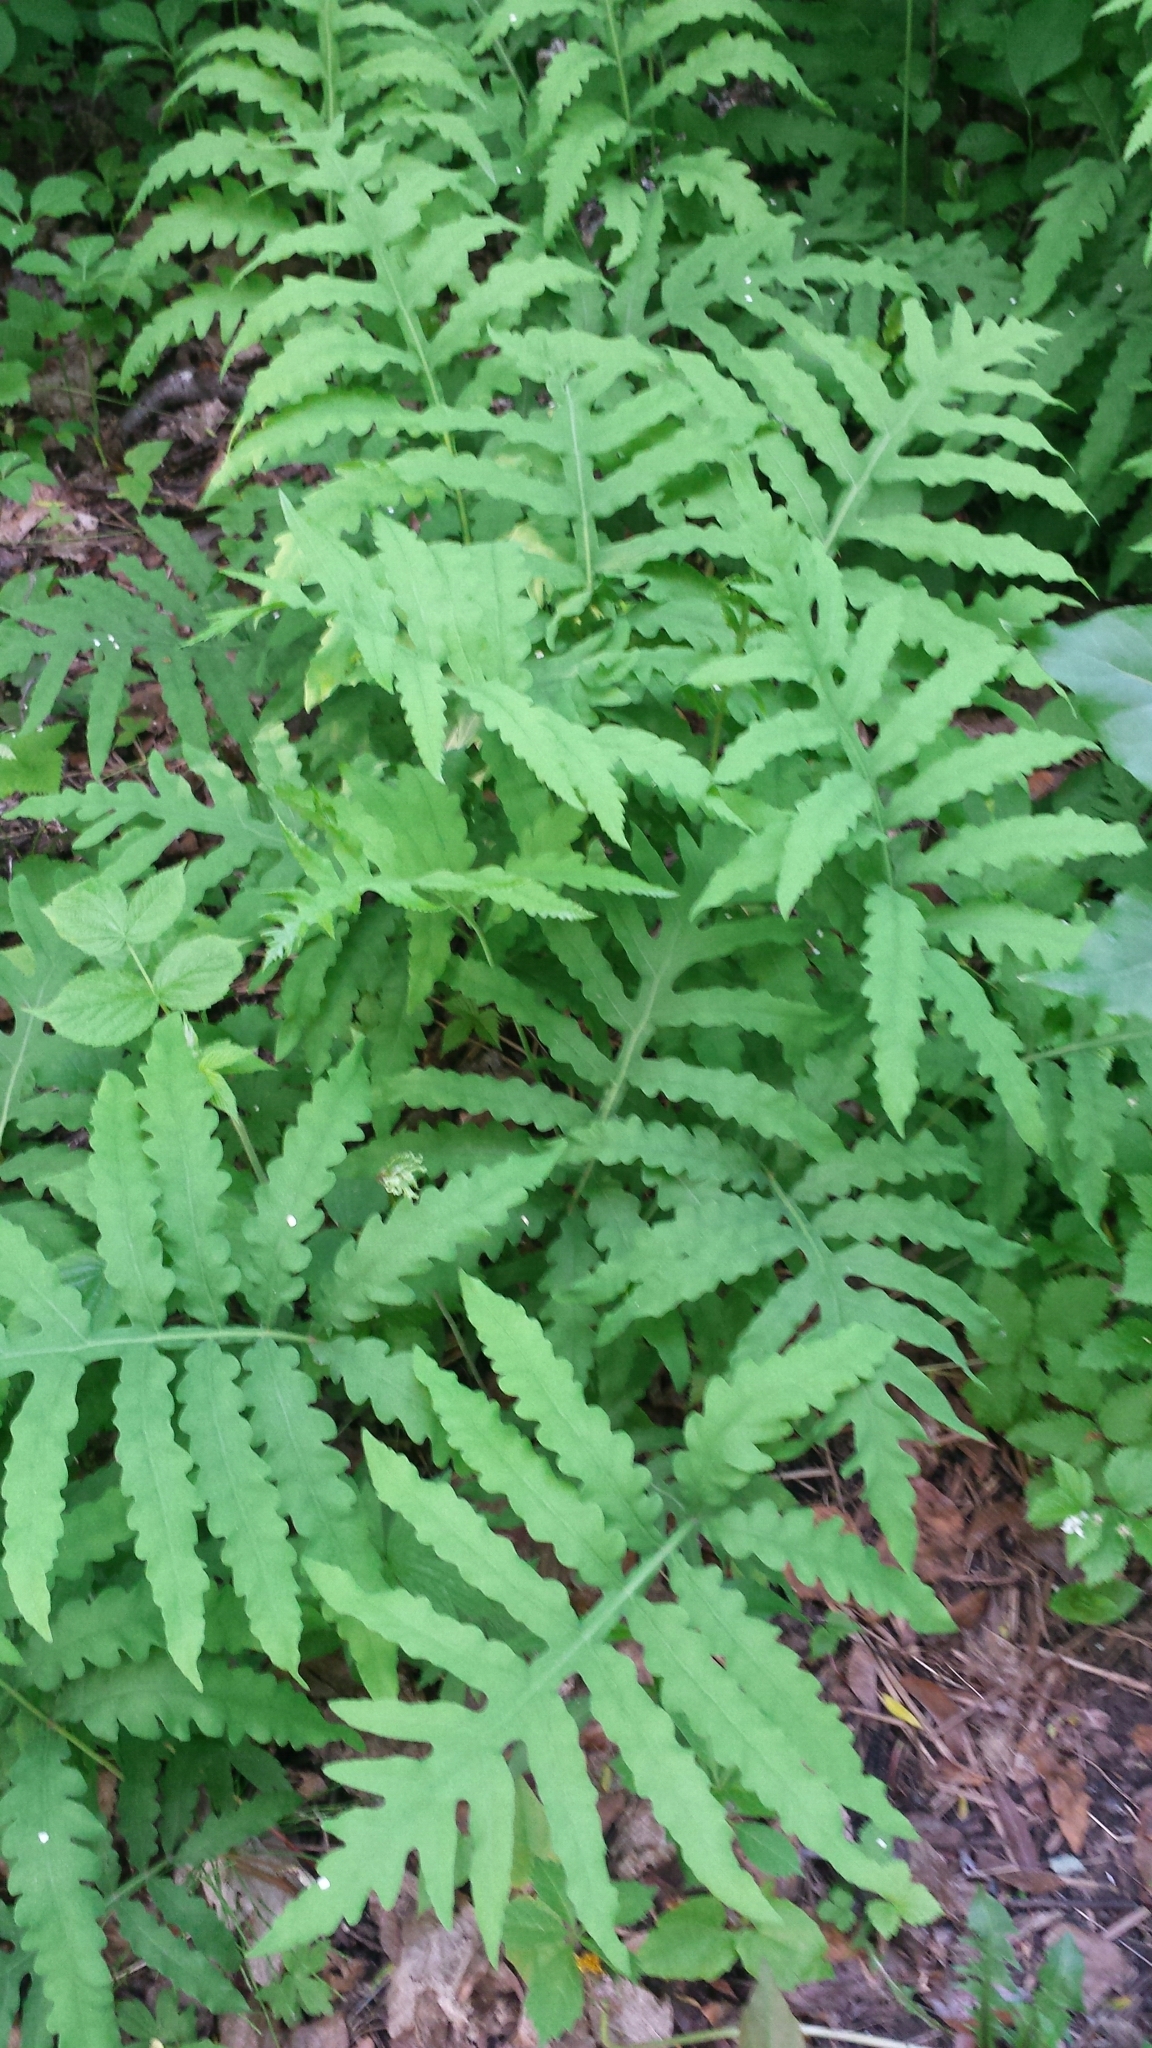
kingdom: Plantae
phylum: Tracheophyta
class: Polypodiopsida
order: Polypodiales
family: Onocleaceae
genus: Onoclea
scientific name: Onoclea sensibilis
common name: Sensitive fern
